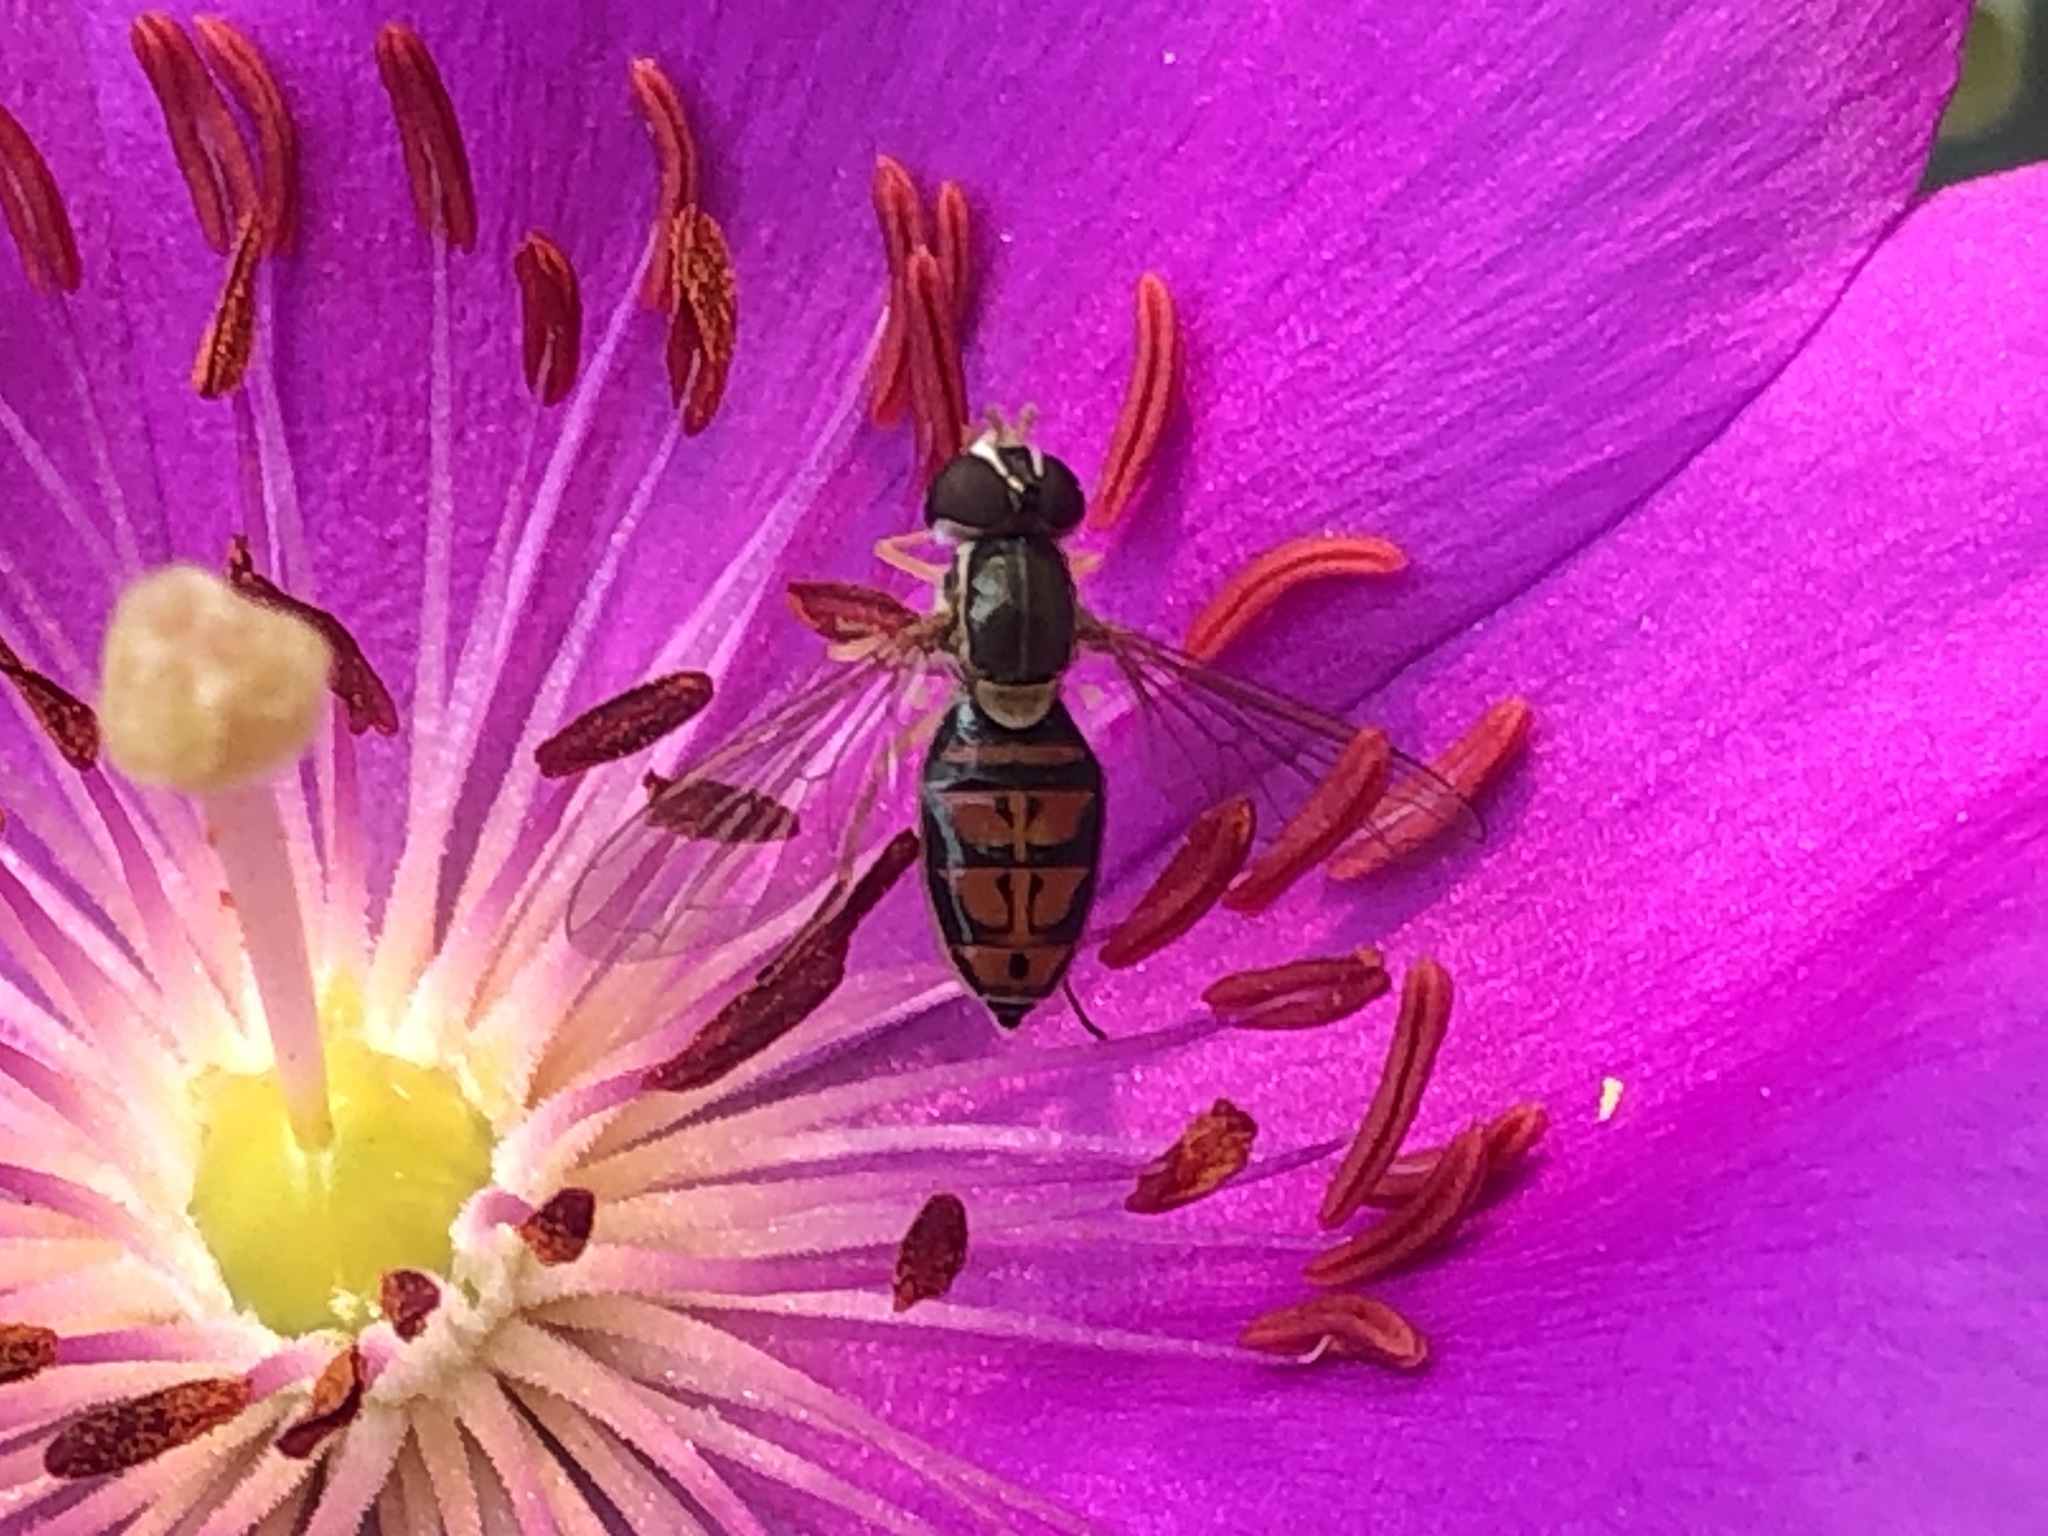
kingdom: Animalia
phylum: Arthropoda
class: Insecta
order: Diptera
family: Syrphidae
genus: Toxomerus
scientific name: Toxomerus marginatus
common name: Syrphid fly
